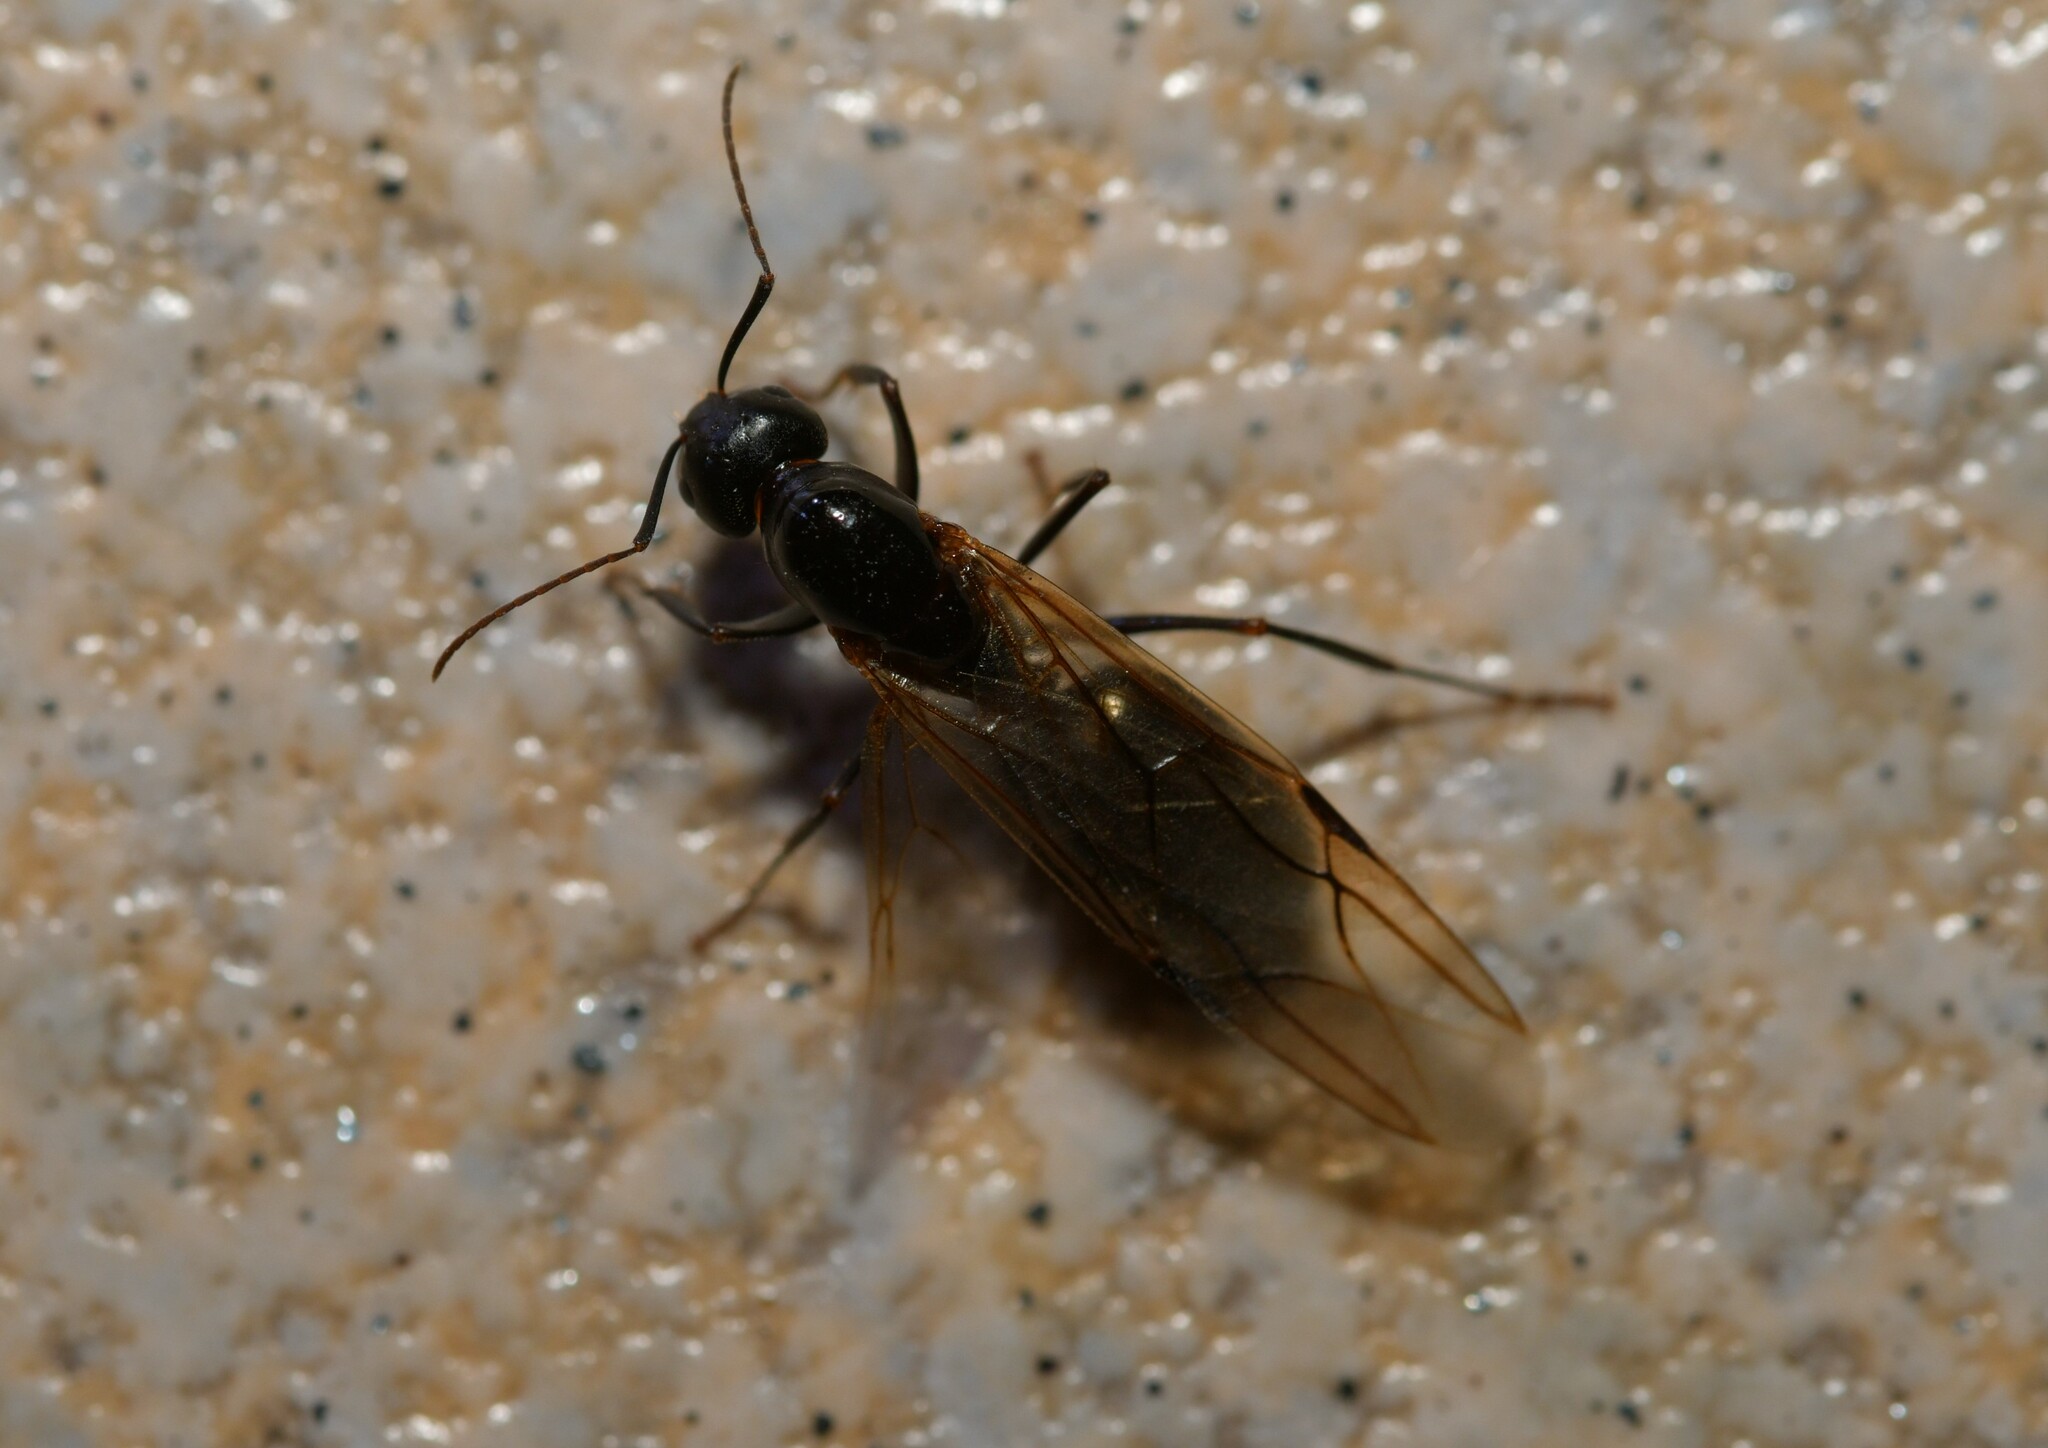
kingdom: Animalia
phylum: Arthropoda
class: Insecta
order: Hymenoptera
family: Formicidae
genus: Camponotus
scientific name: Camponotus foreli
